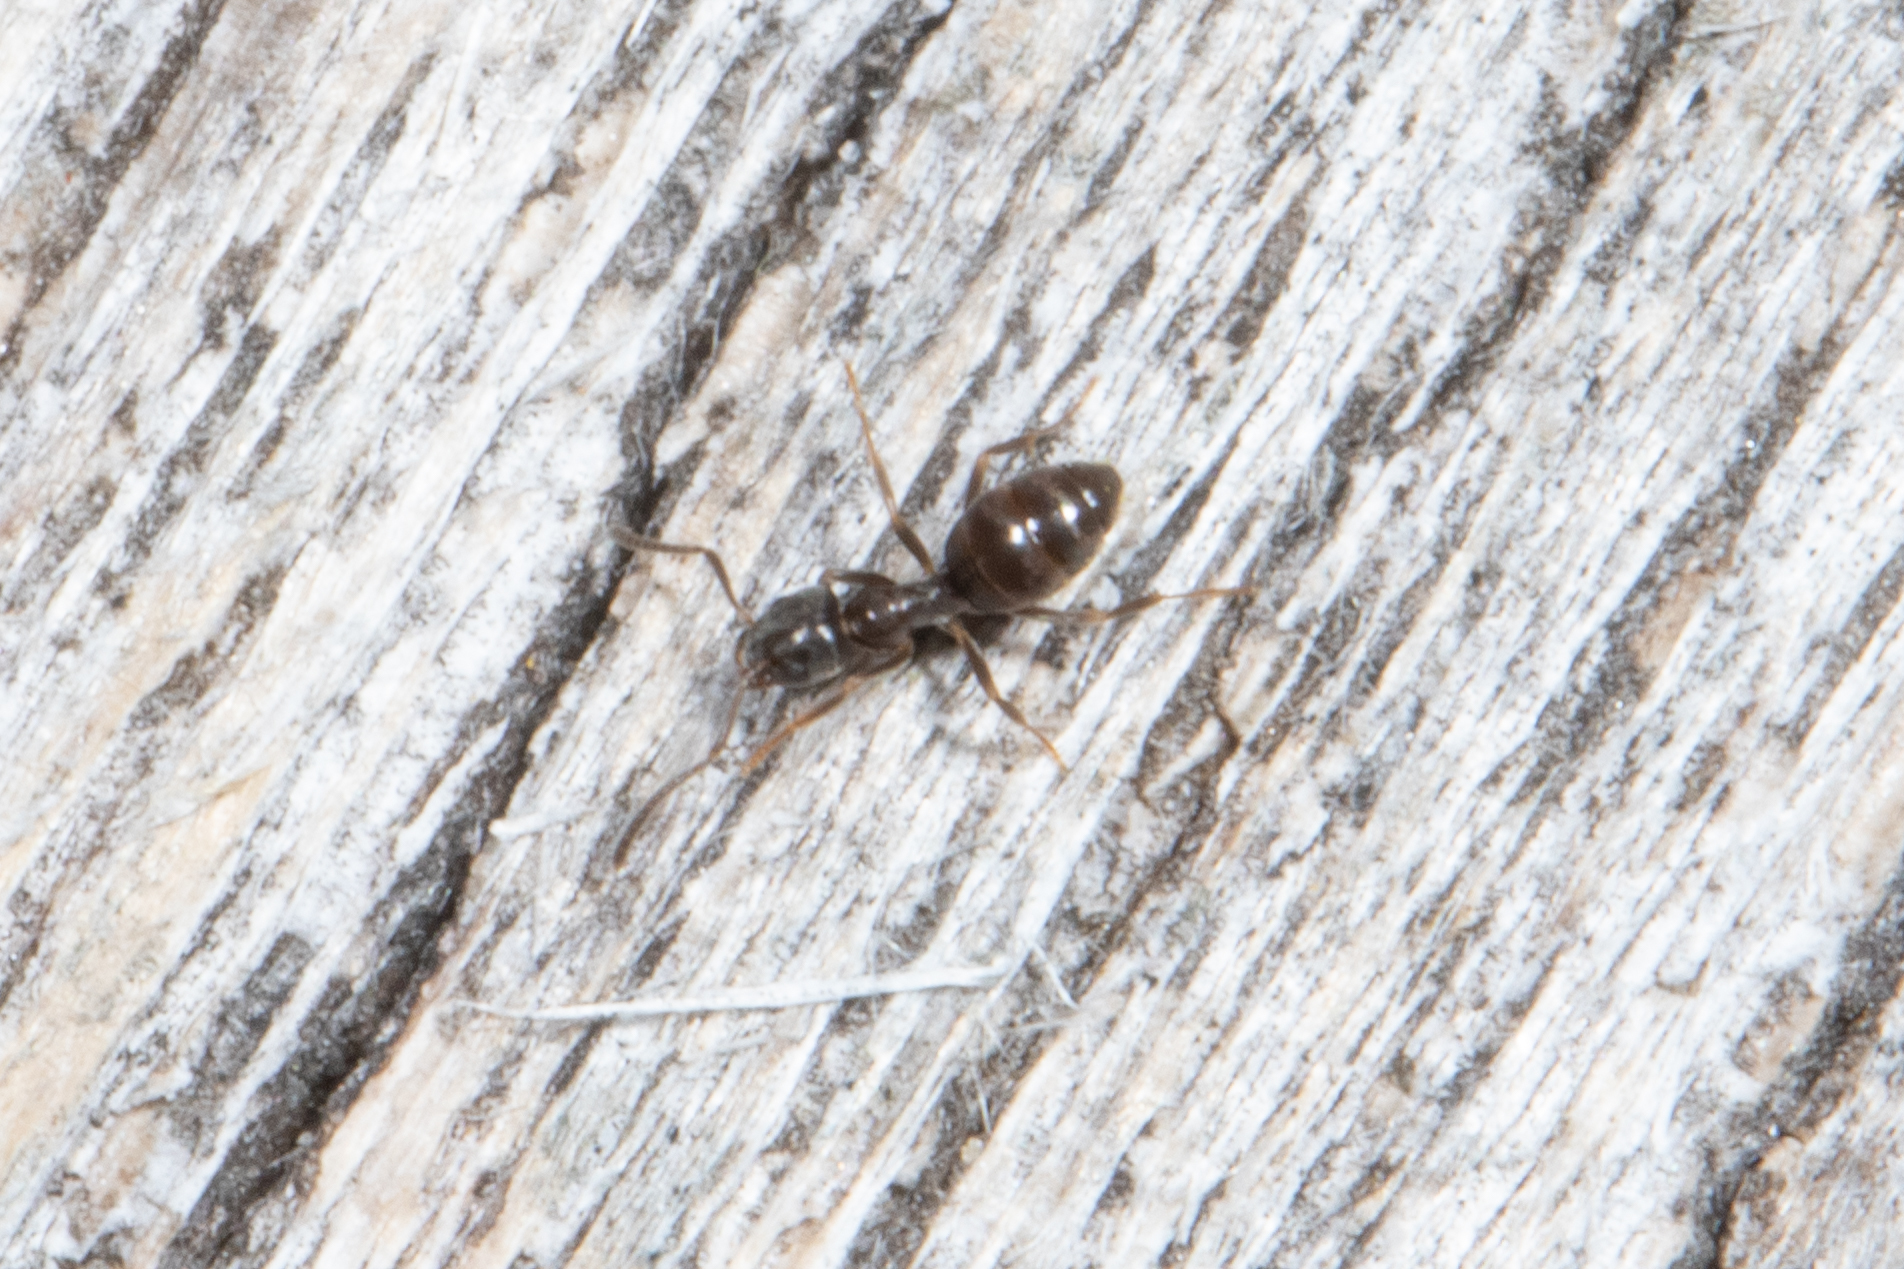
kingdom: Animalia
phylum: Arthropoda
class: Insecta
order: Hymenoptera
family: Formicidae
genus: Tapinoma
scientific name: Tapinoma sessile
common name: Odorous house ant
